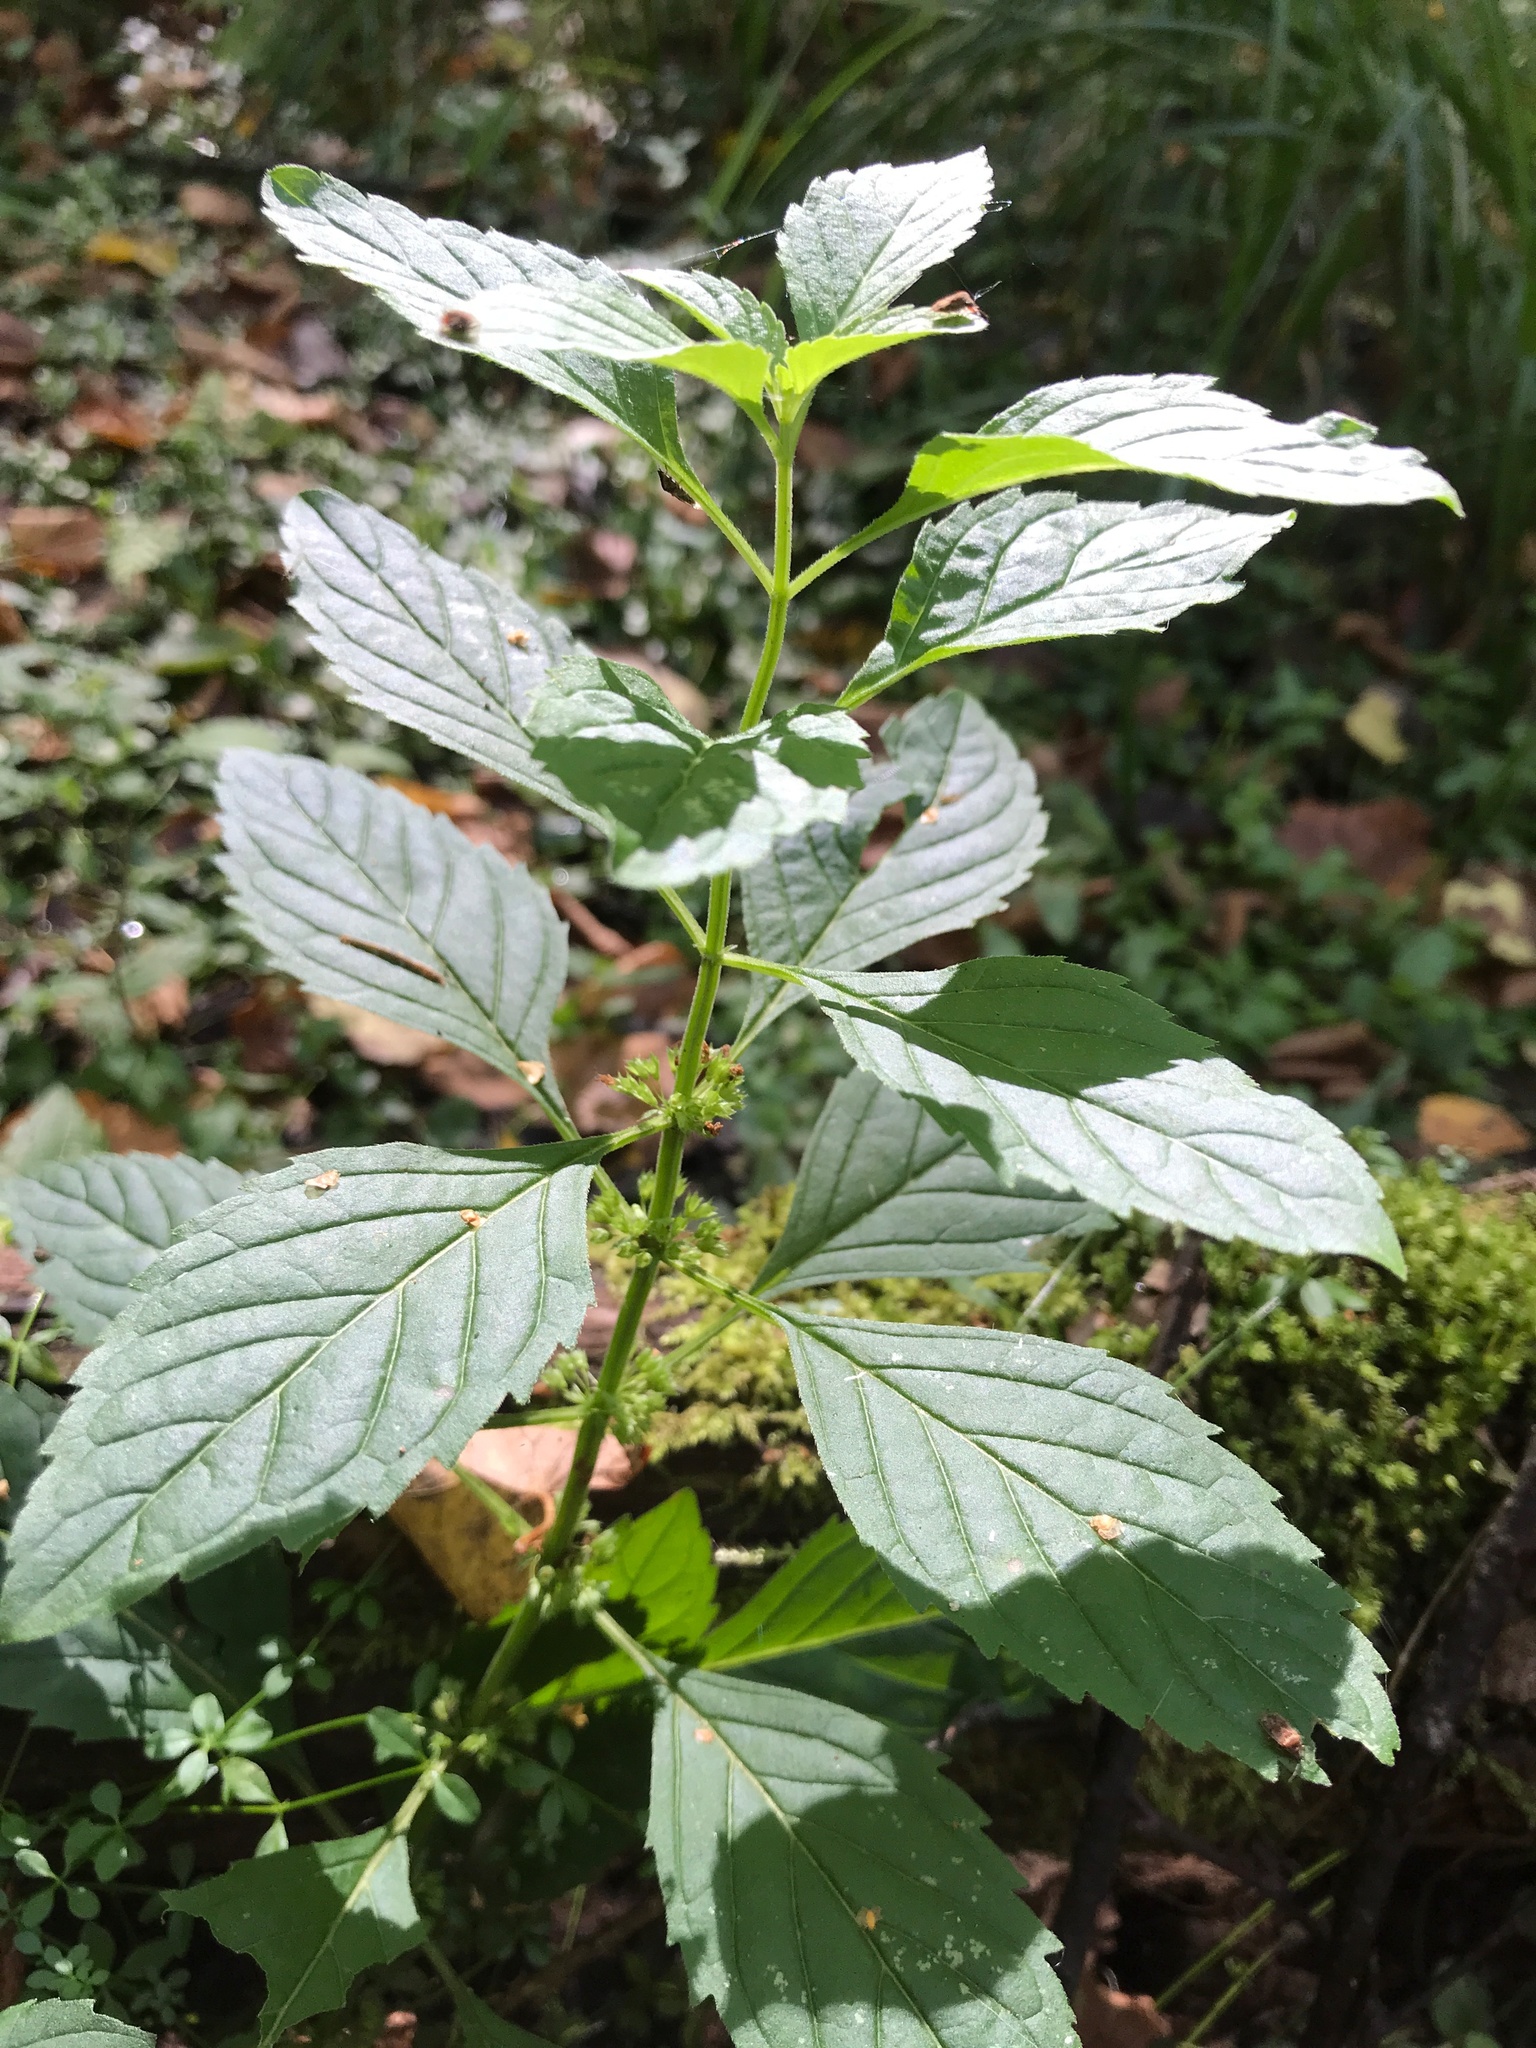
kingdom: Plantae
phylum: Tracheophyta
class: Magnoliopsida
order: Lamiales
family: Lamiaceae
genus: Mentha
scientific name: Mentha arvensis
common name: Corn mint
